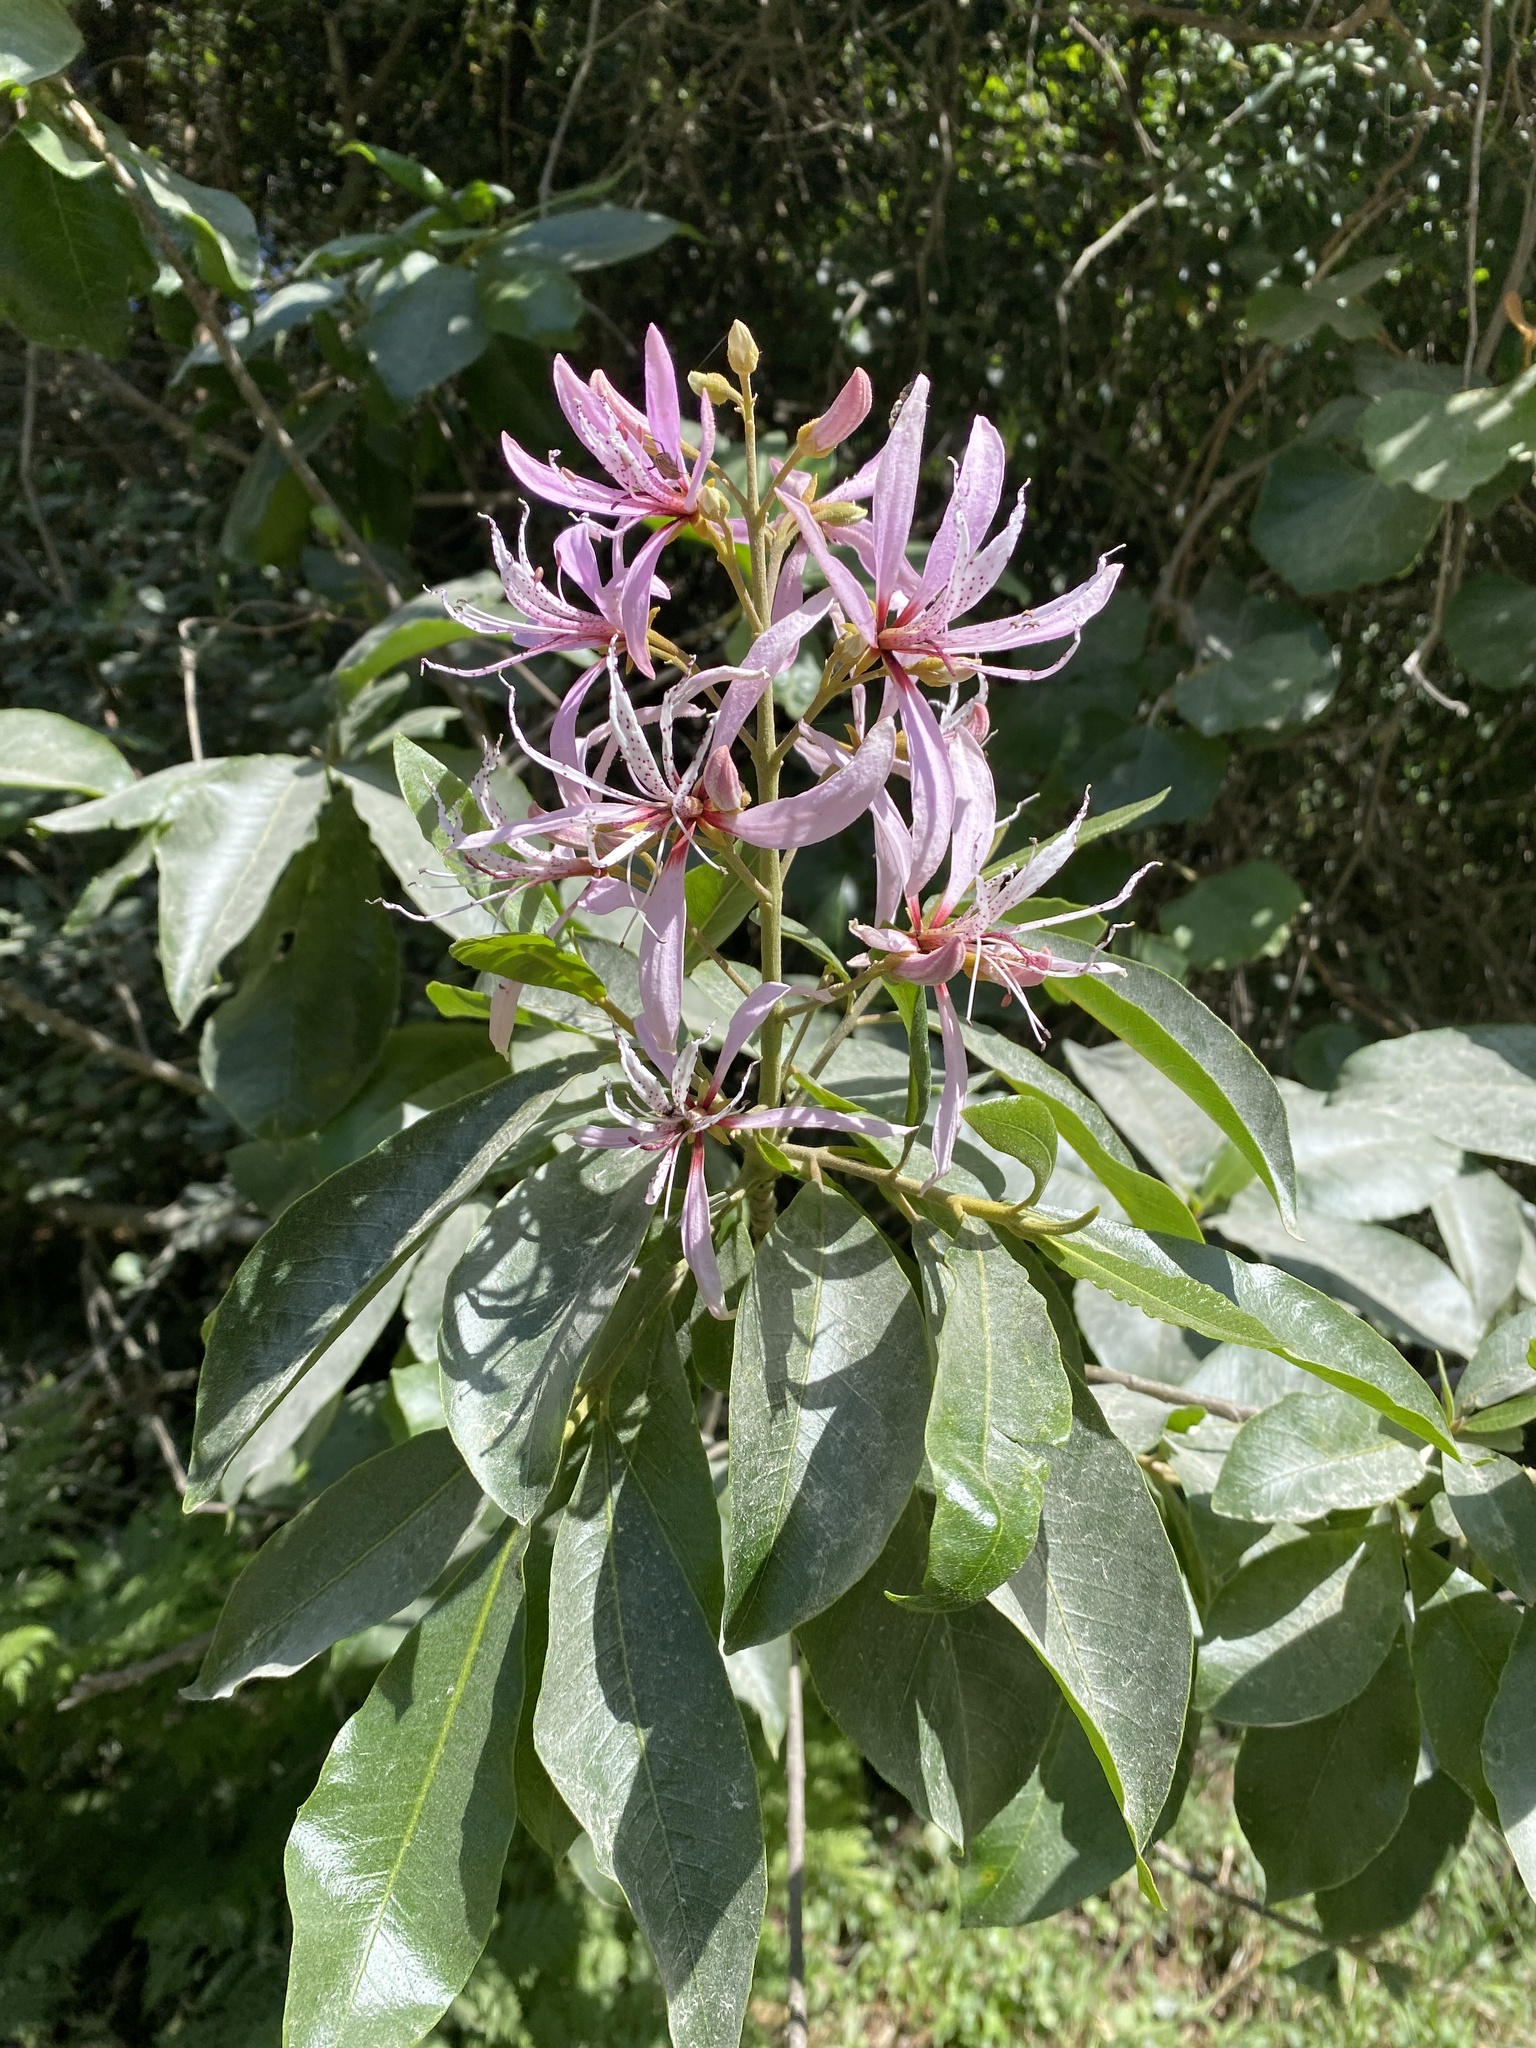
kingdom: Plantae
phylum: Tracheophyta
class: Magnoliopsida
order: Sapindales
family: Rutaceae
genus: Calodendrum
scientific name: Calodendrum capense
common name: Cape chestnut
